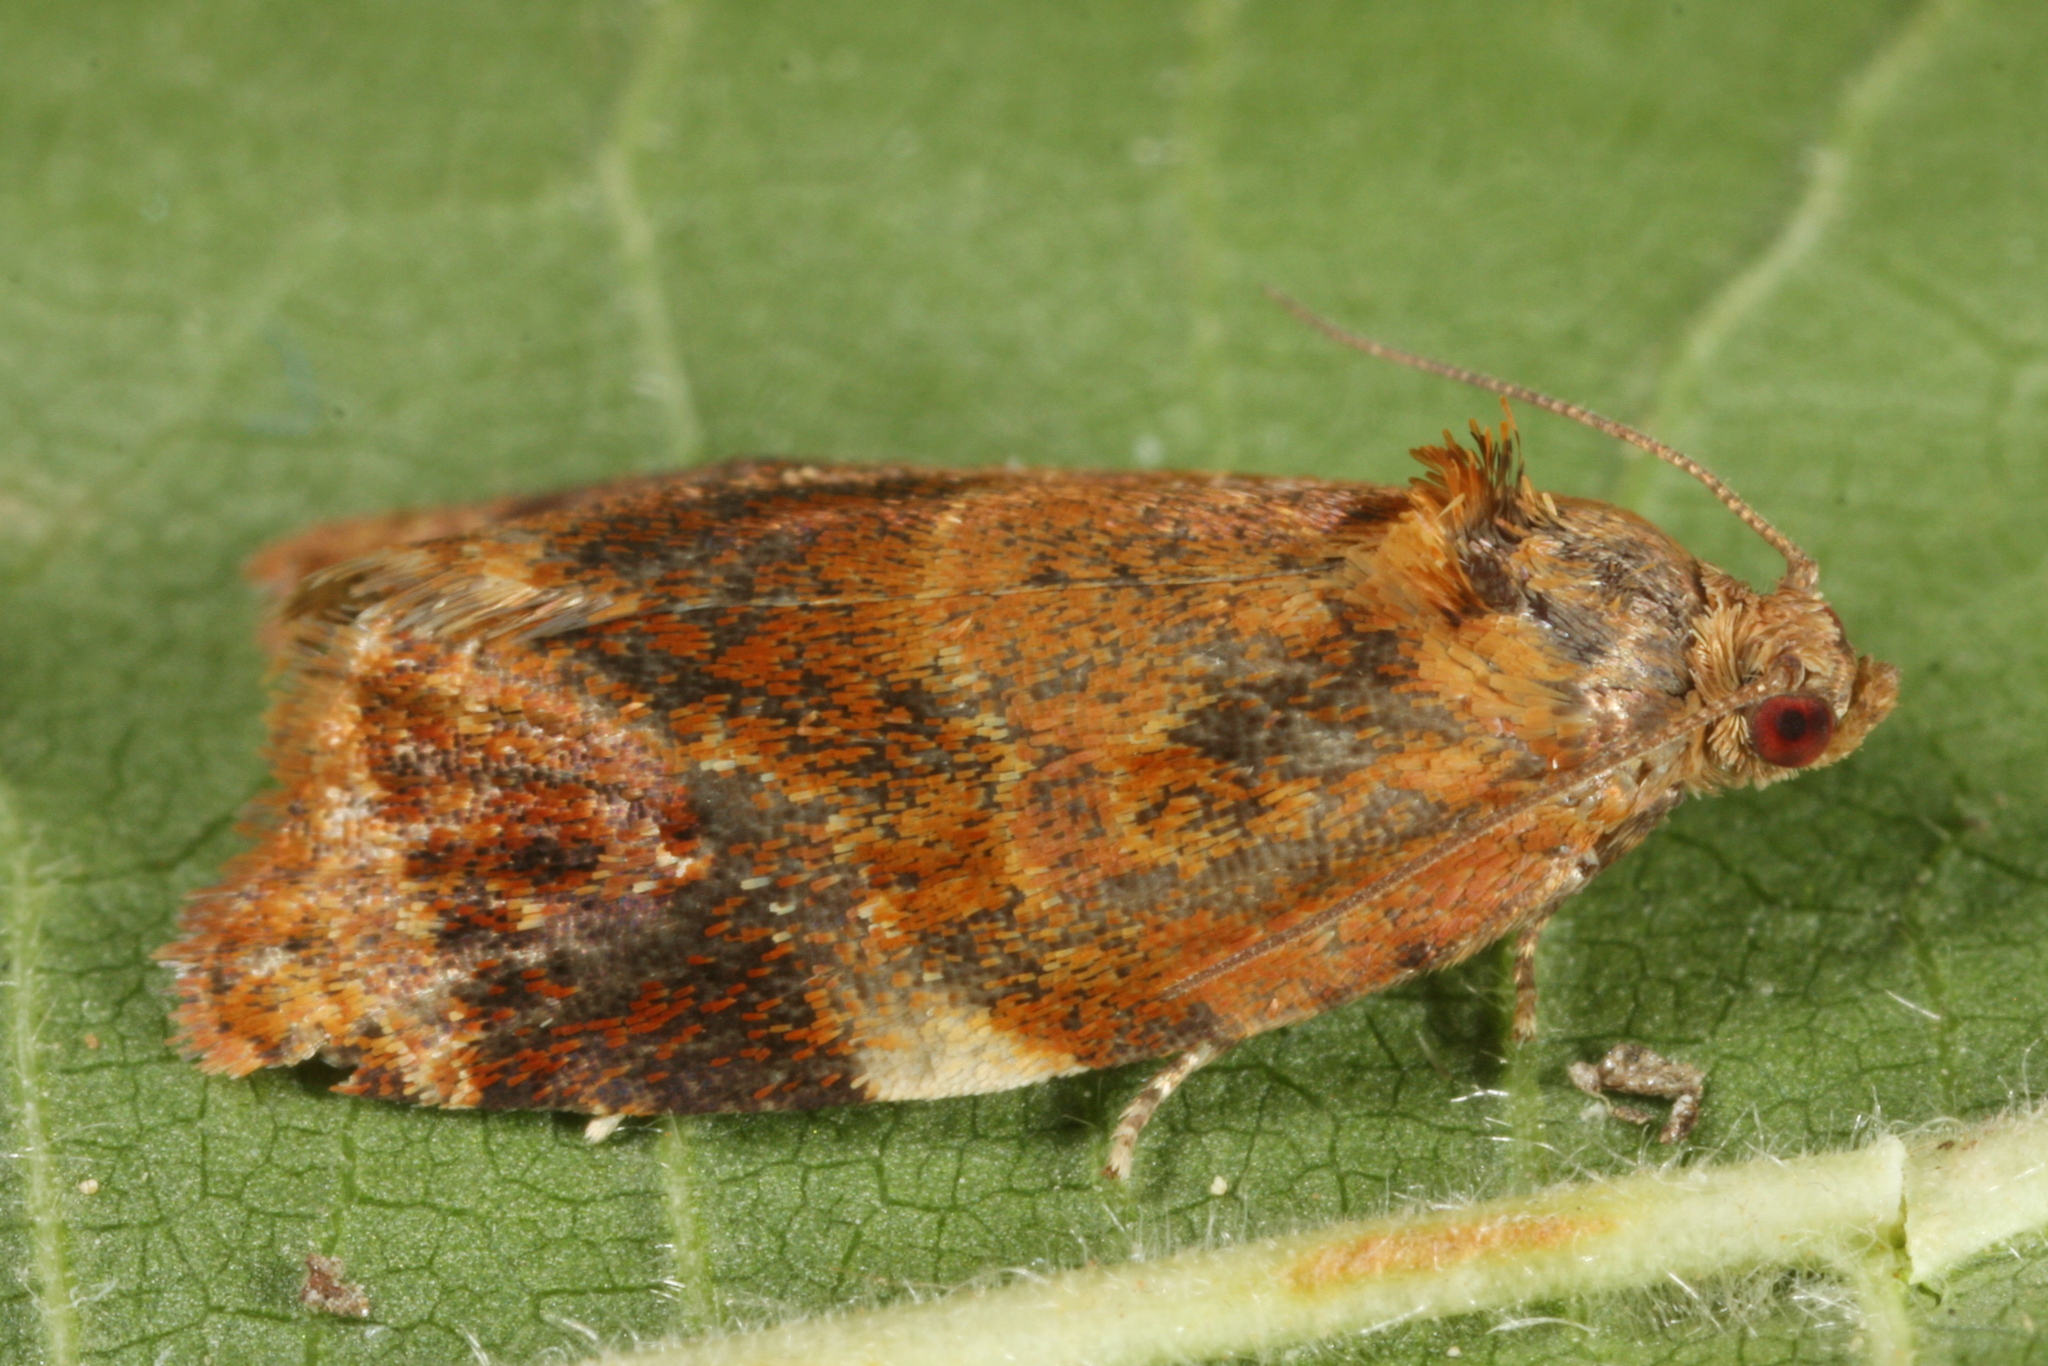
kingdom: Animalia
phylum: Arthropoda
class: Insecta
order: Lepidoptera
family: Tortricidae
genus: Ditula
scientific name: Ditula angustiorana
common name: Red-barred tortrix
